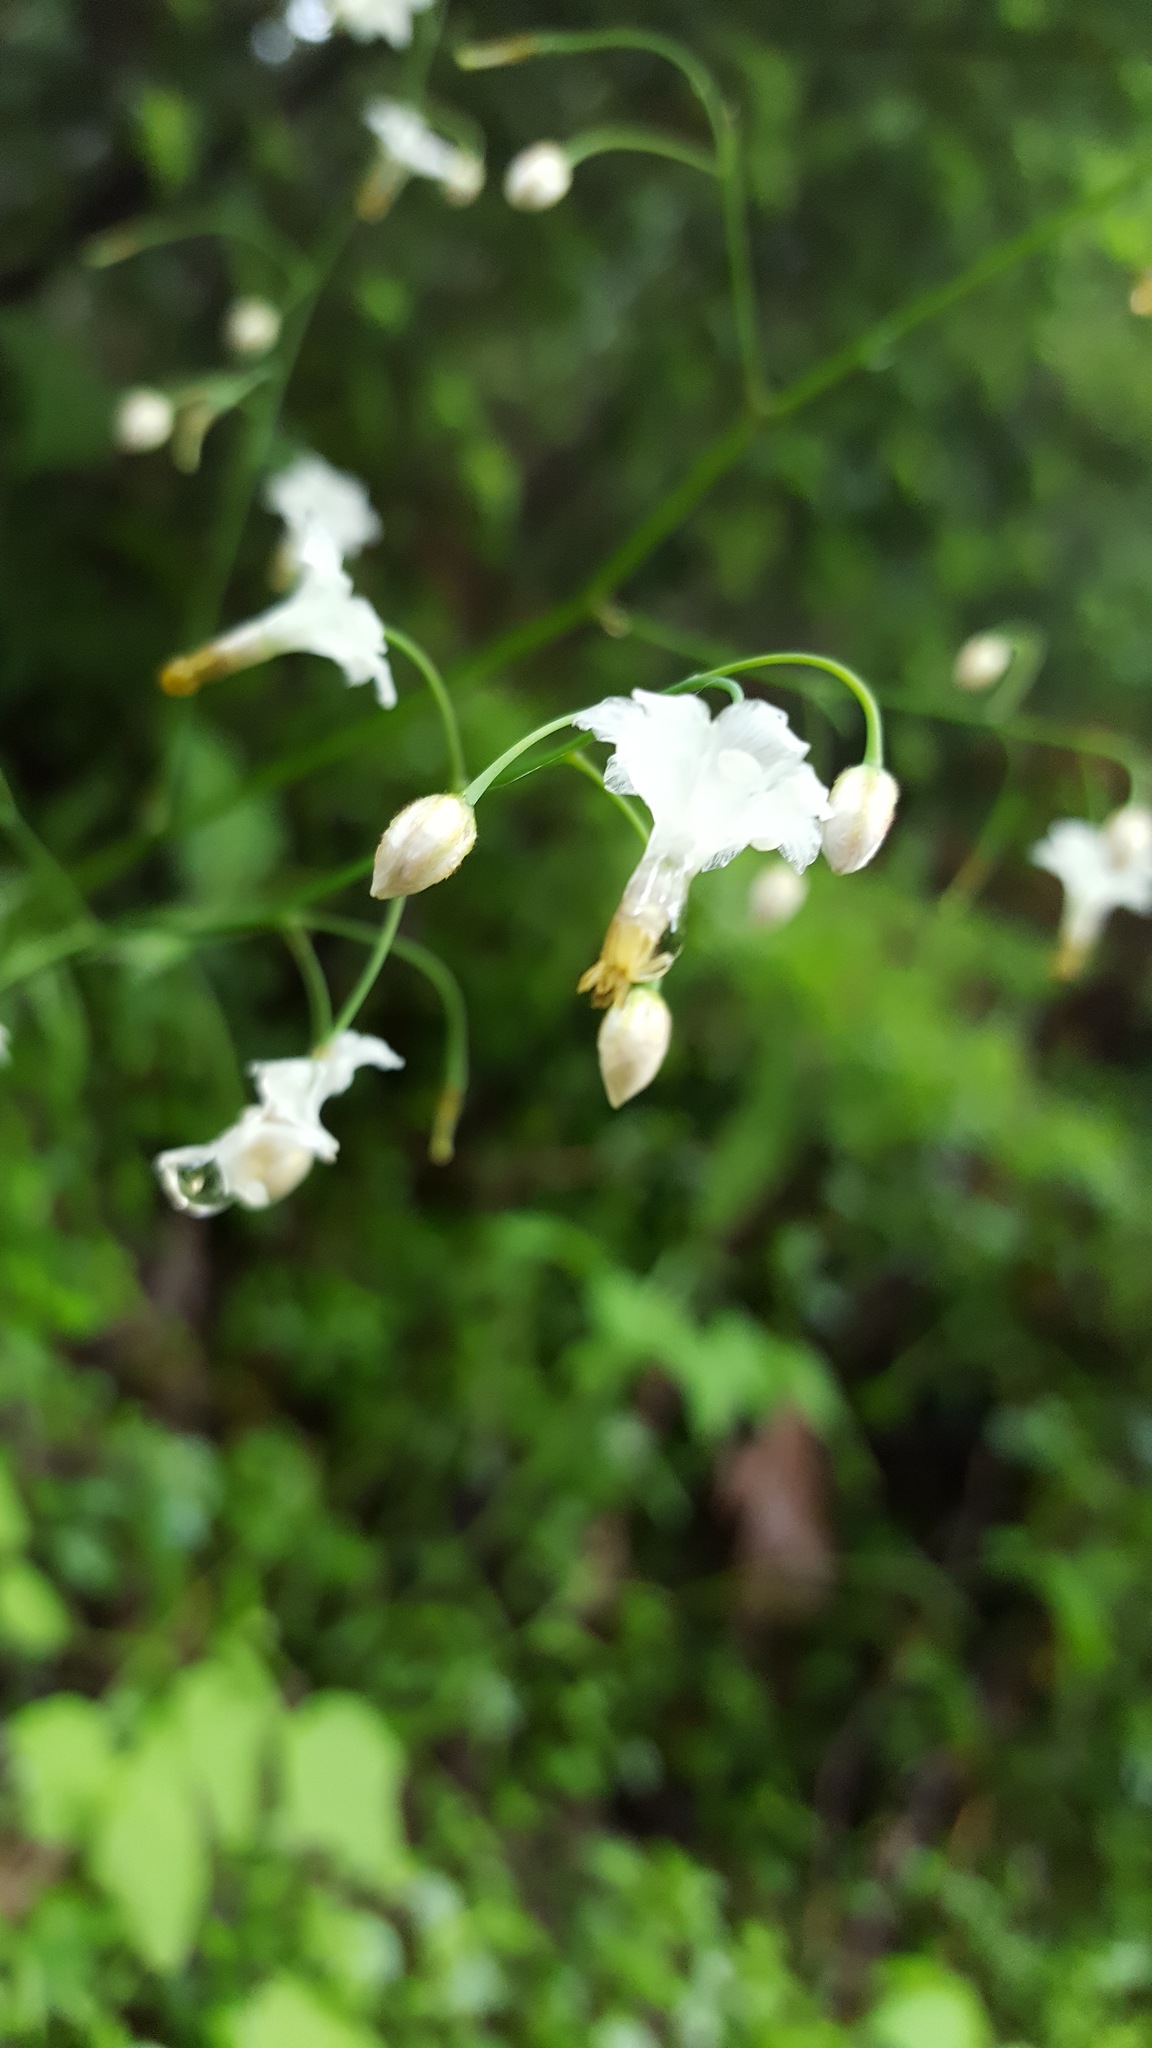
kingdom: Plantae
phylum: Tracheophyta
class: Magnoliopsida
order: Ranunculales
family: Berberidaceae
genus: Vancouveria
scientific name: Vancouveria hexandra
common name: Northern inside-out-flower
